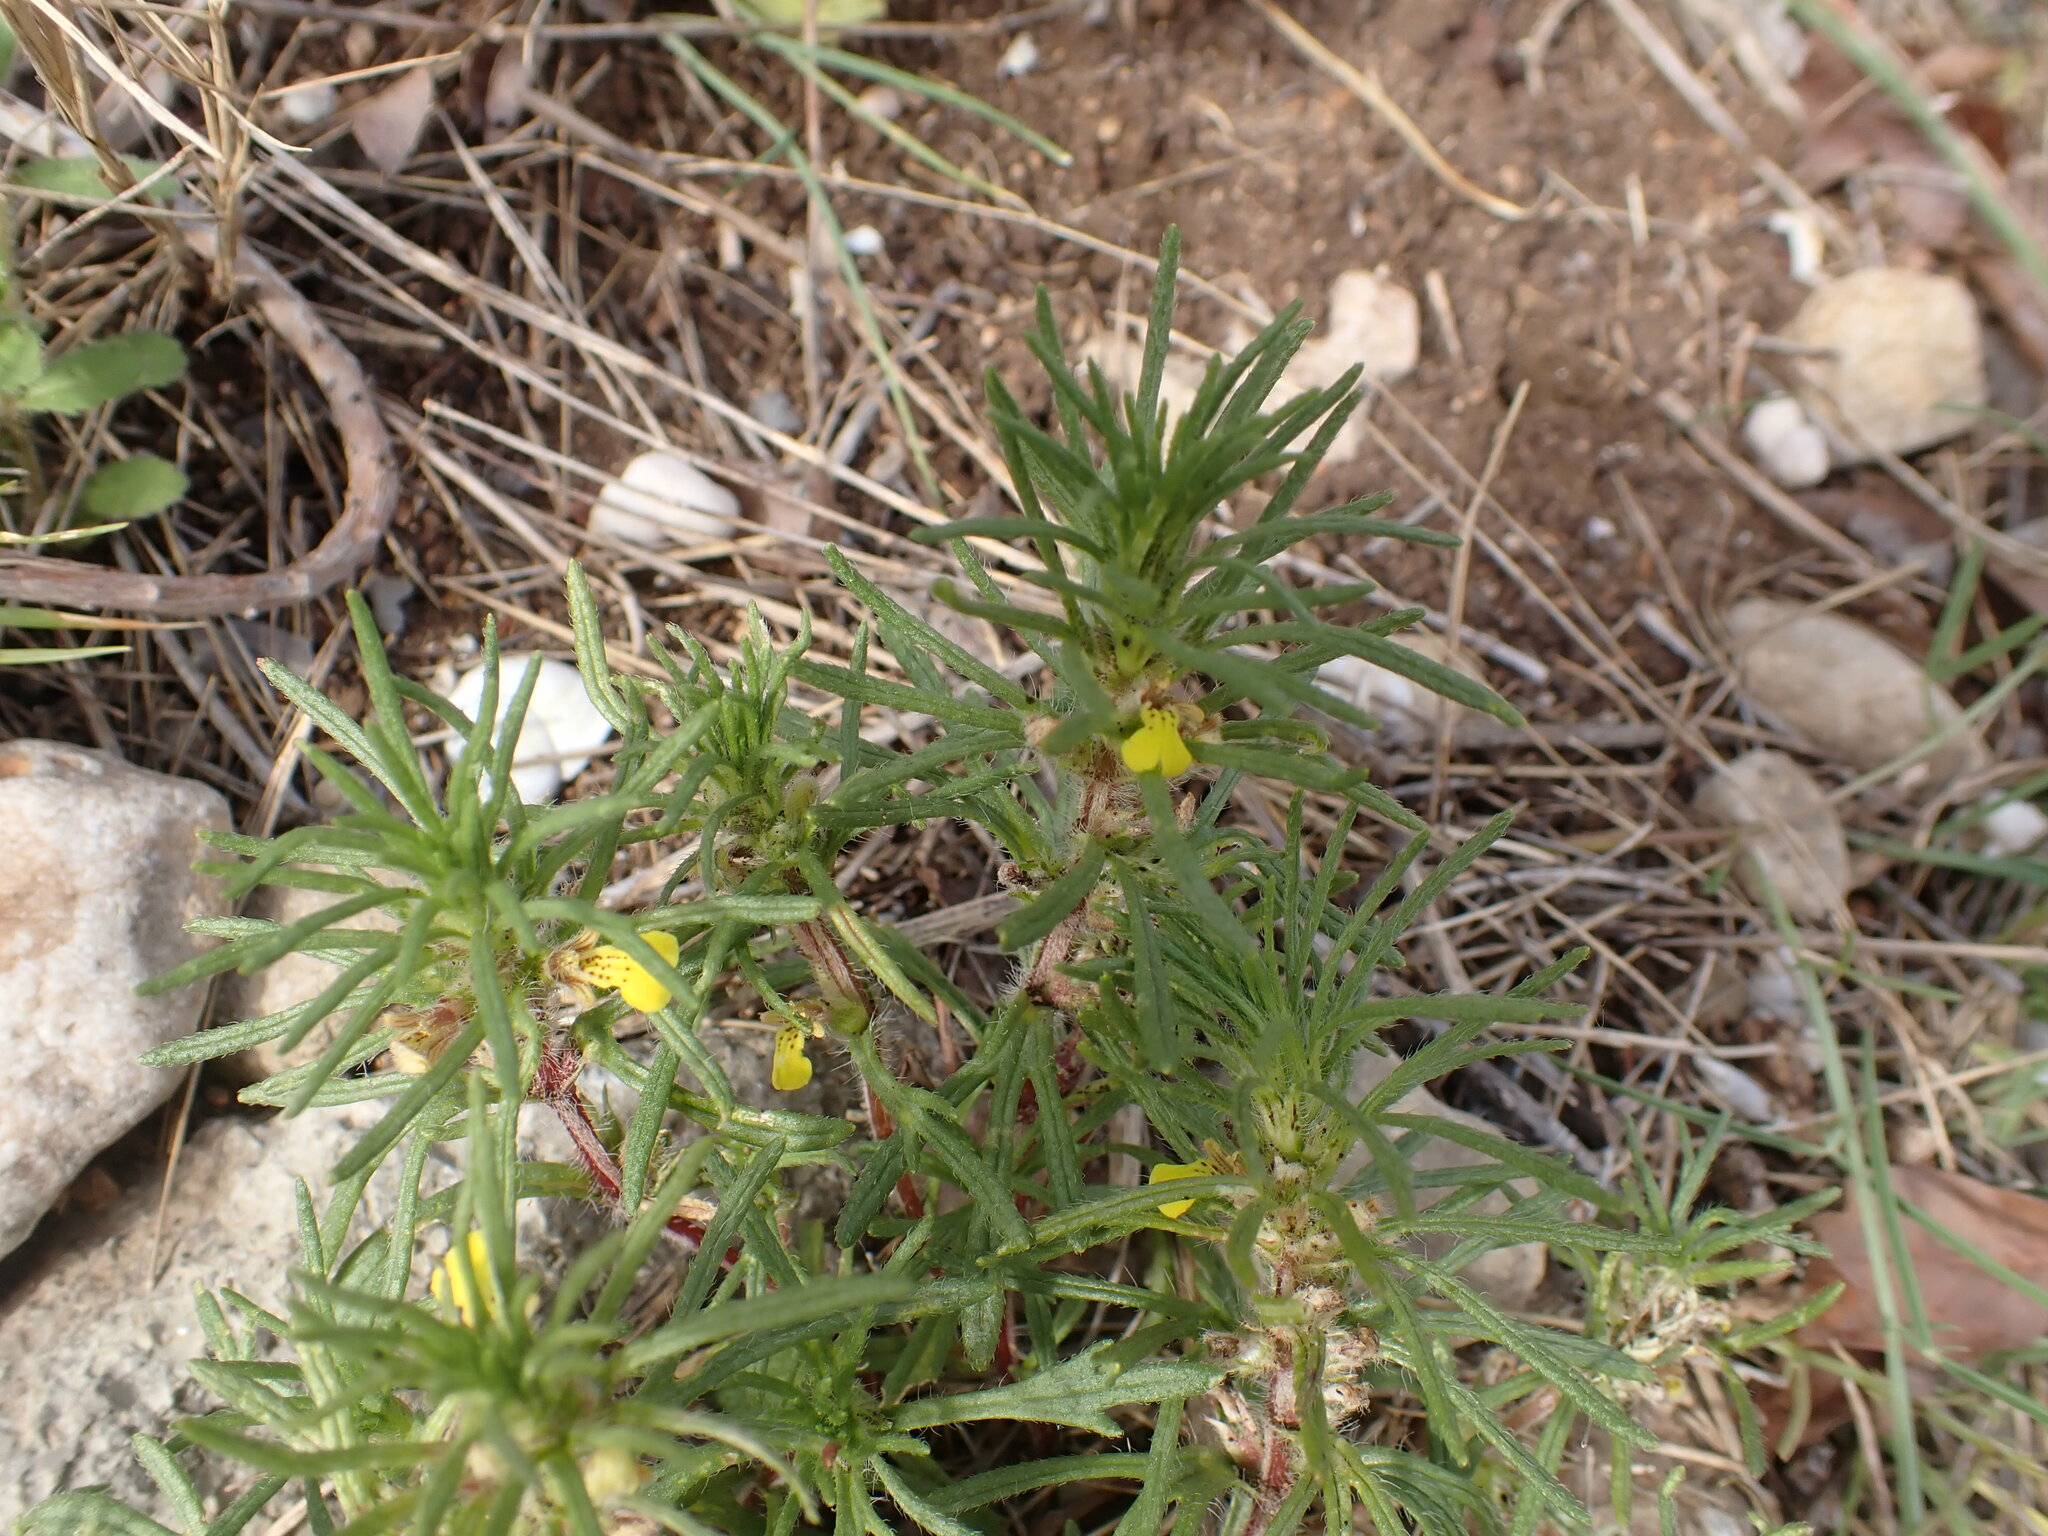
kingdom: Plantae
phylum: Tracheophyta
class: Magnoliopsida
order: Lamiales
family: Lamiaceae
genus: Ajuga
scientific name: Ajuga chamaepitys
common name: Ground-pine
